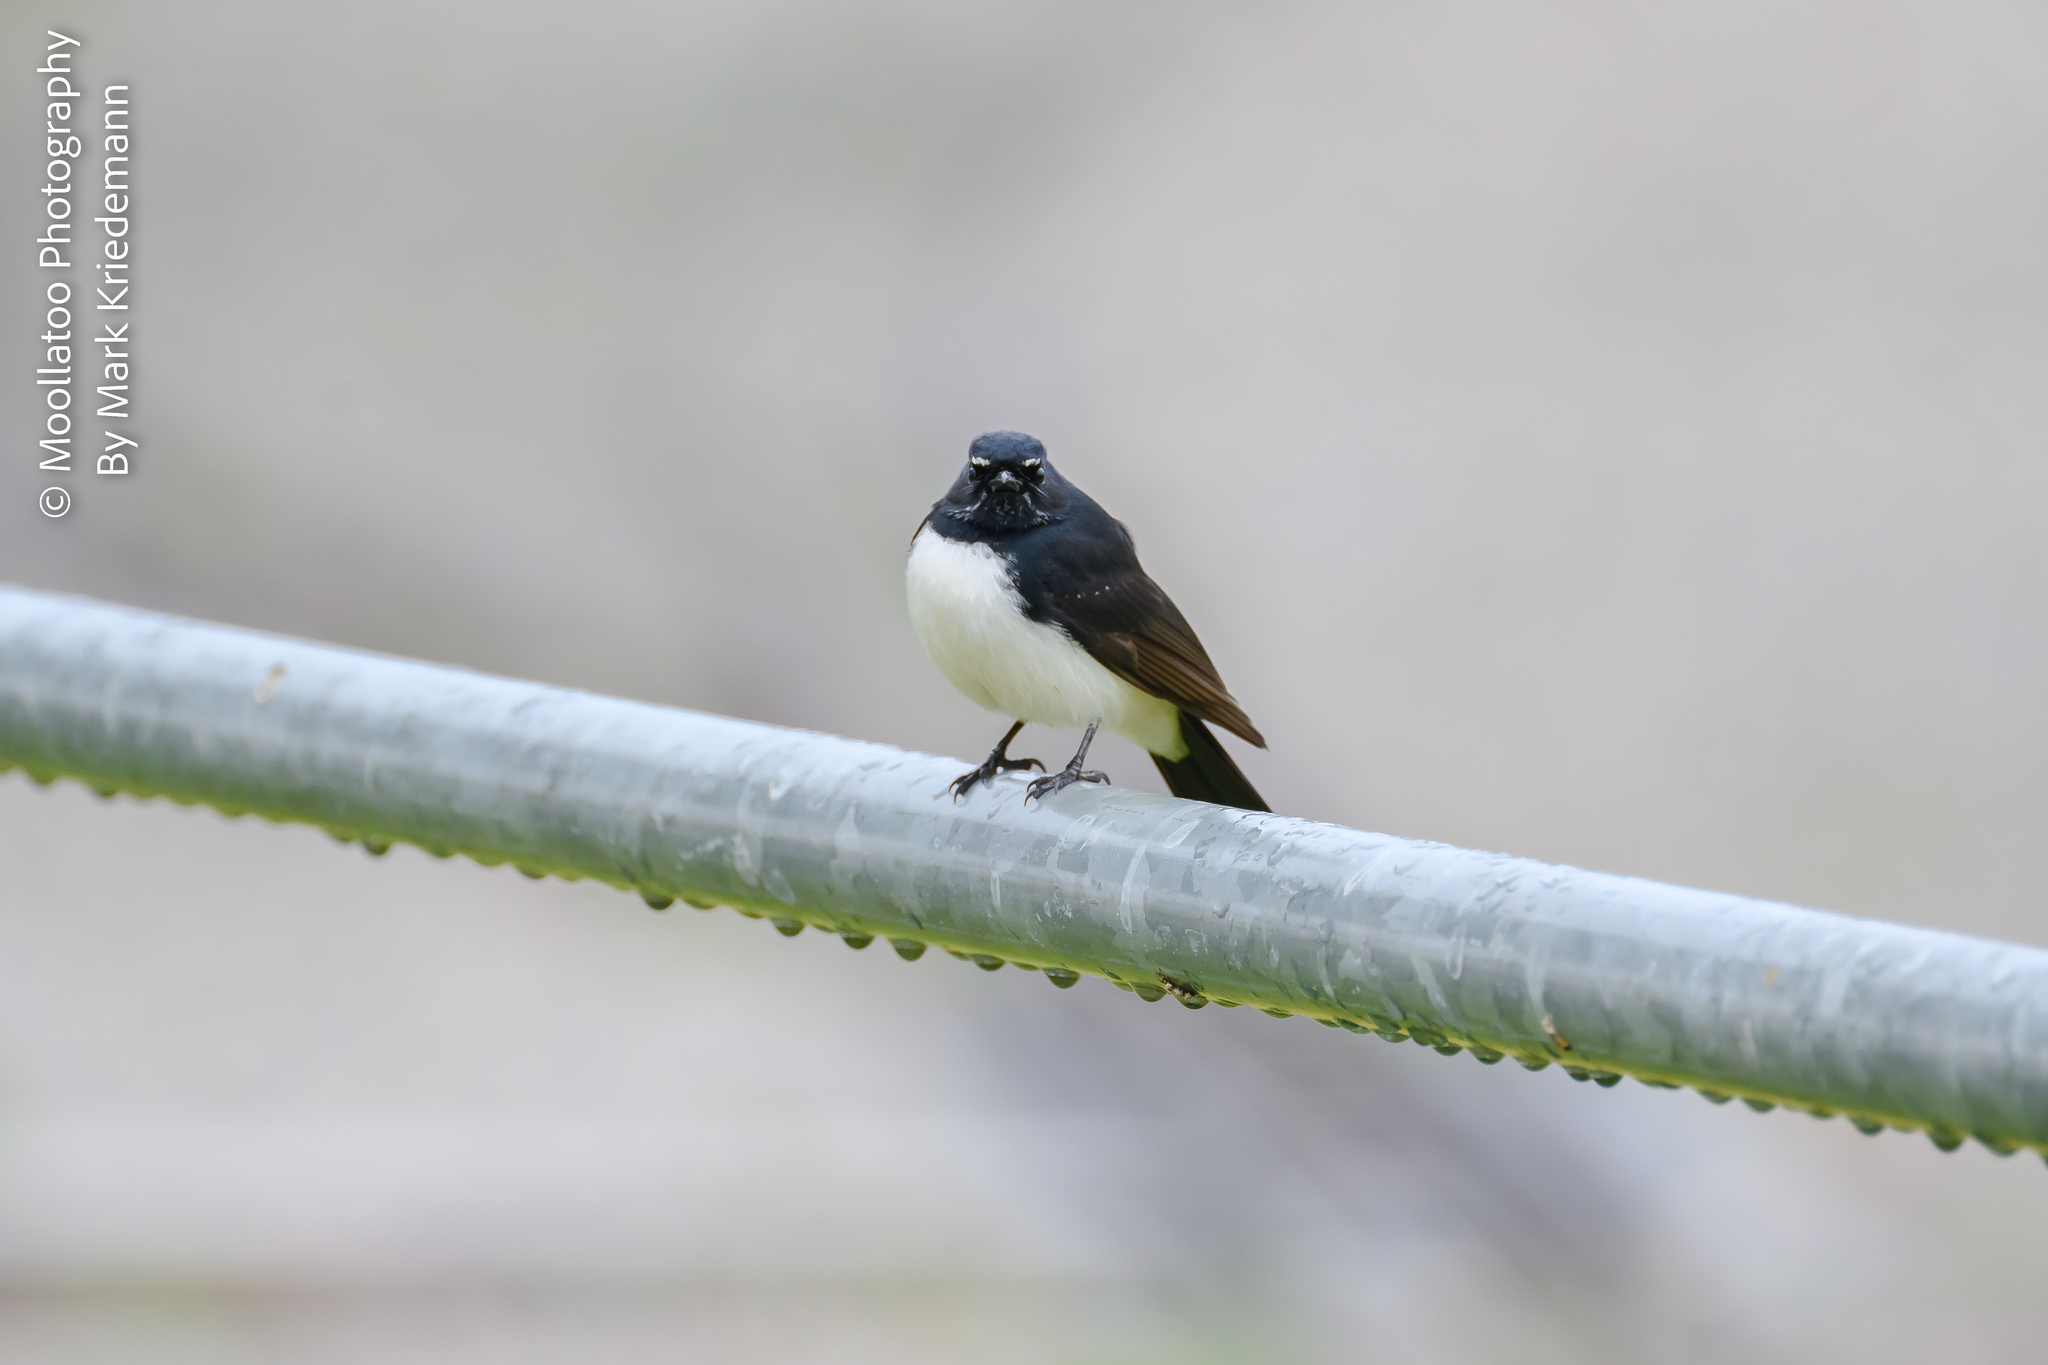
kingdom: Animalia
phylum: Chordata
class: Aves
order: Passeriformes
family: Rhipiduridae
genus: Rhipidura
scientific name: Rhipidura leucophrys
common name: Willie wagtail
